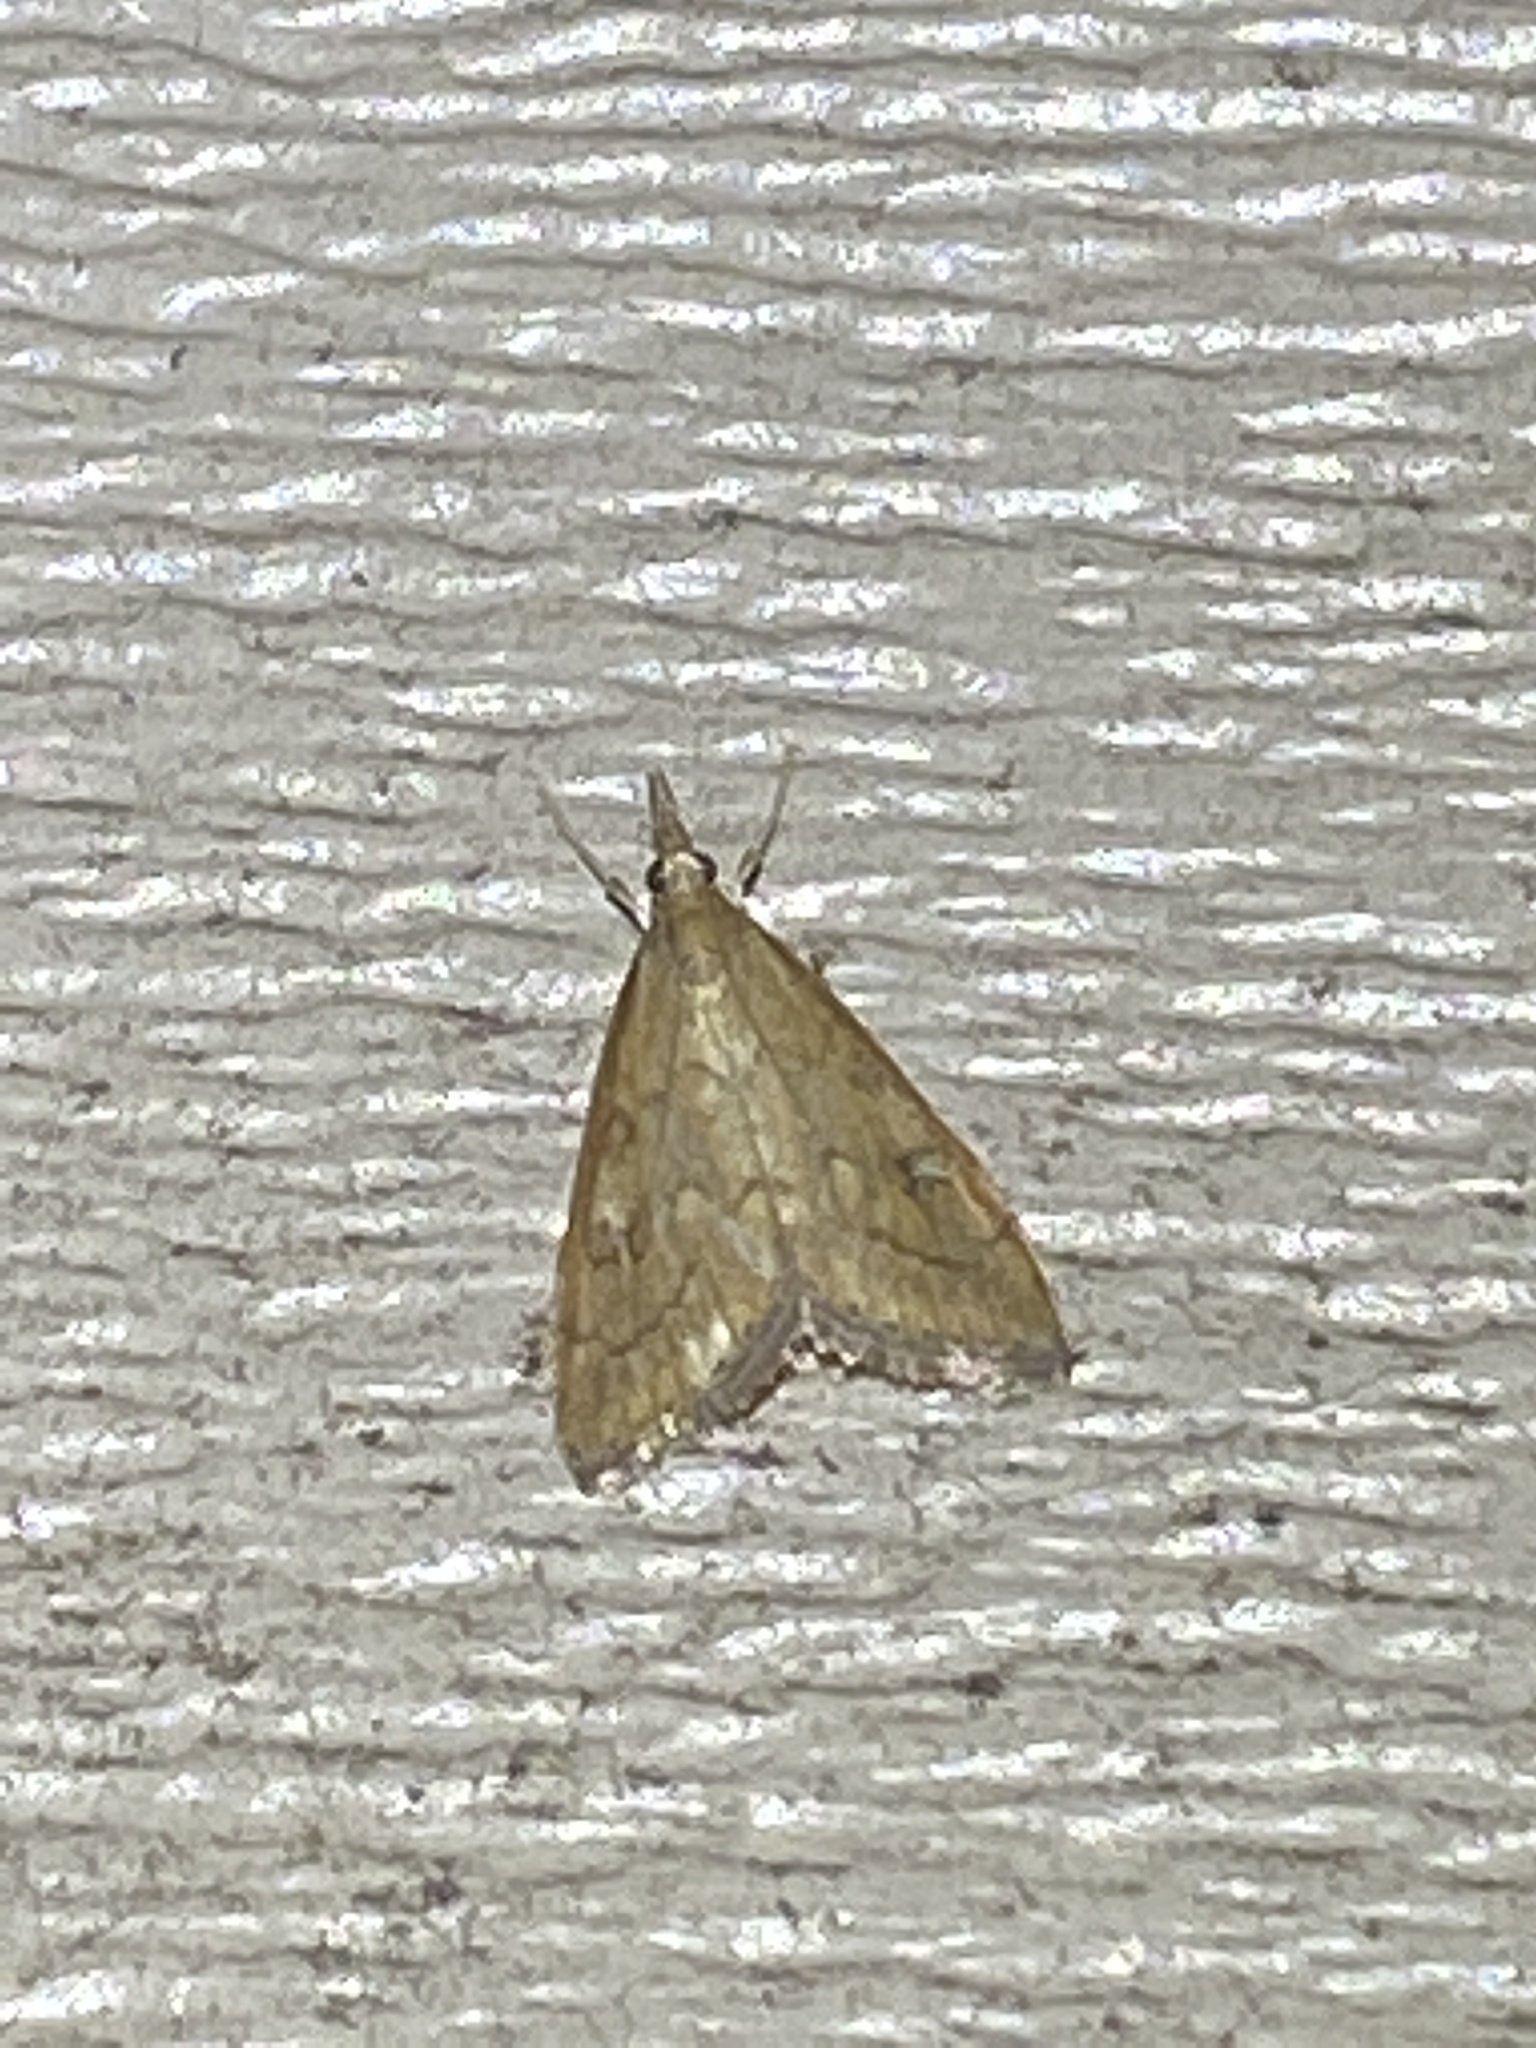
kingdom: Animalia
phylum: Arthropoda
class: Insecta
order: Lepidoptera
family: Crambidae
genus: Udea
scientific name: Udea rubigalis
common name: Celery leaftier moth
